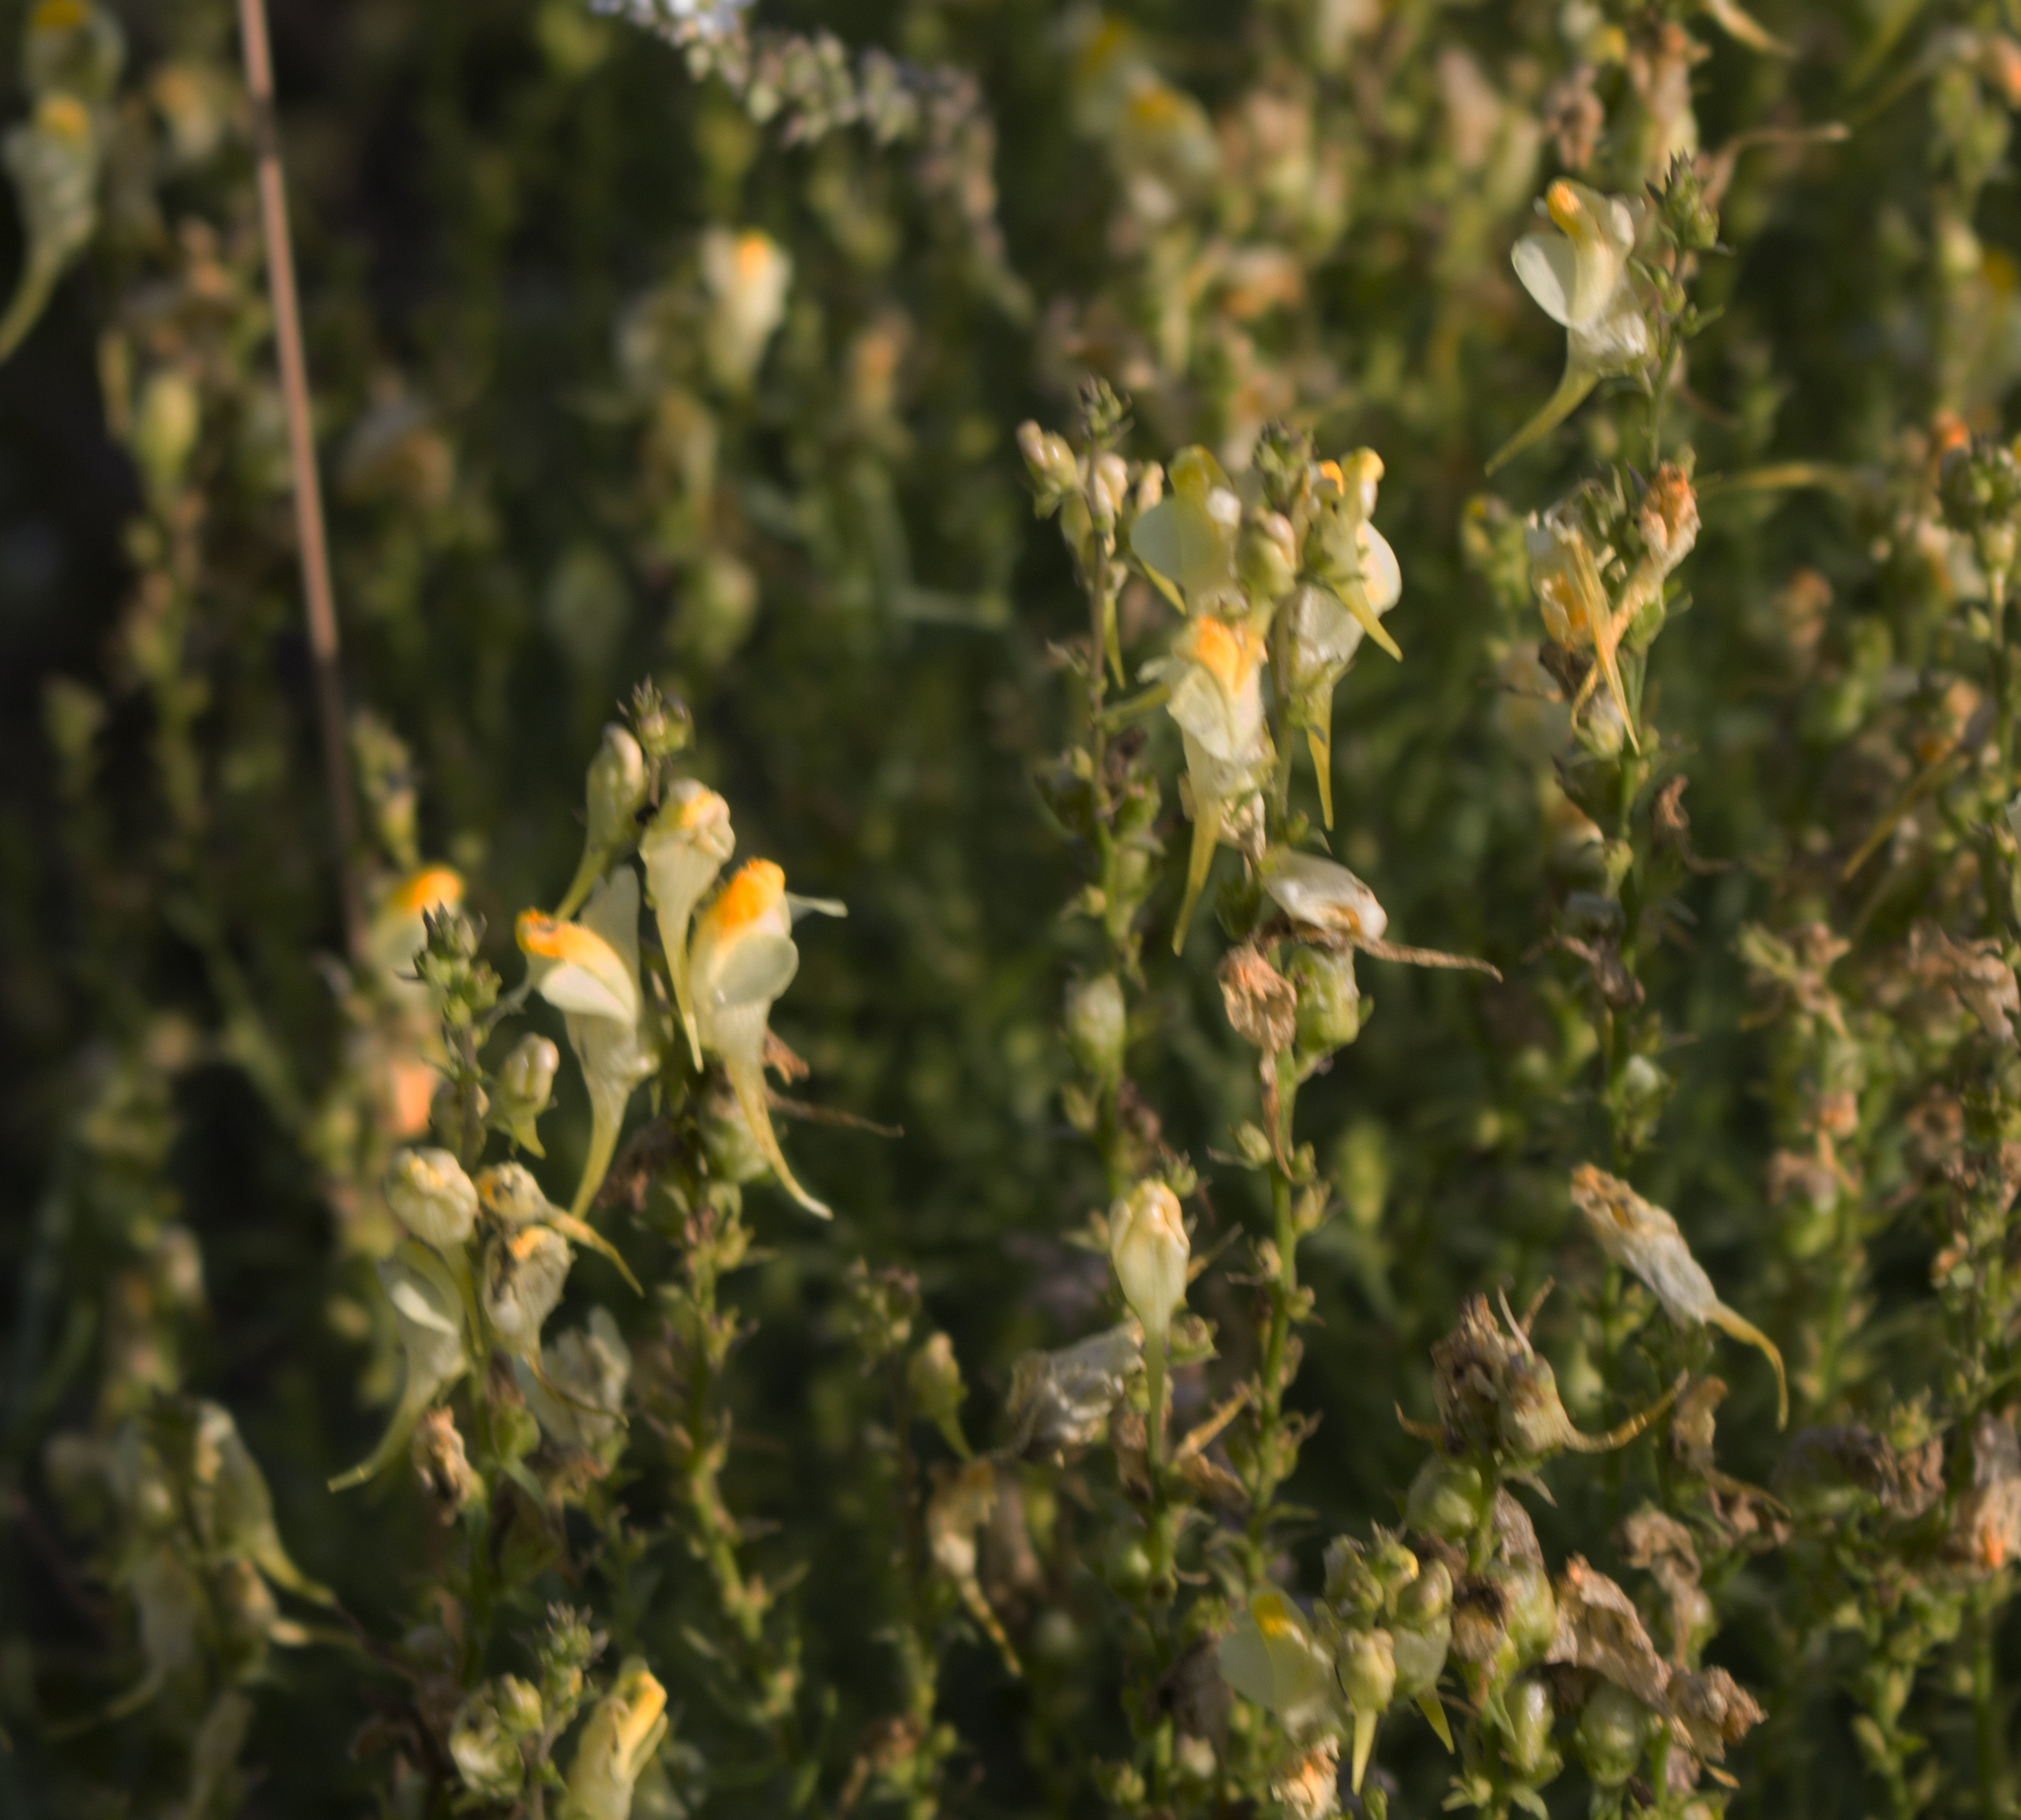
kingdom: Plantae
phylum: Tracheophyta
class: Magnoliopsida
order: Lamiales
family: Plantaginaceae
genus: Linaria
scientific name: Linaria vulgaris
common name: Butter and eggs
